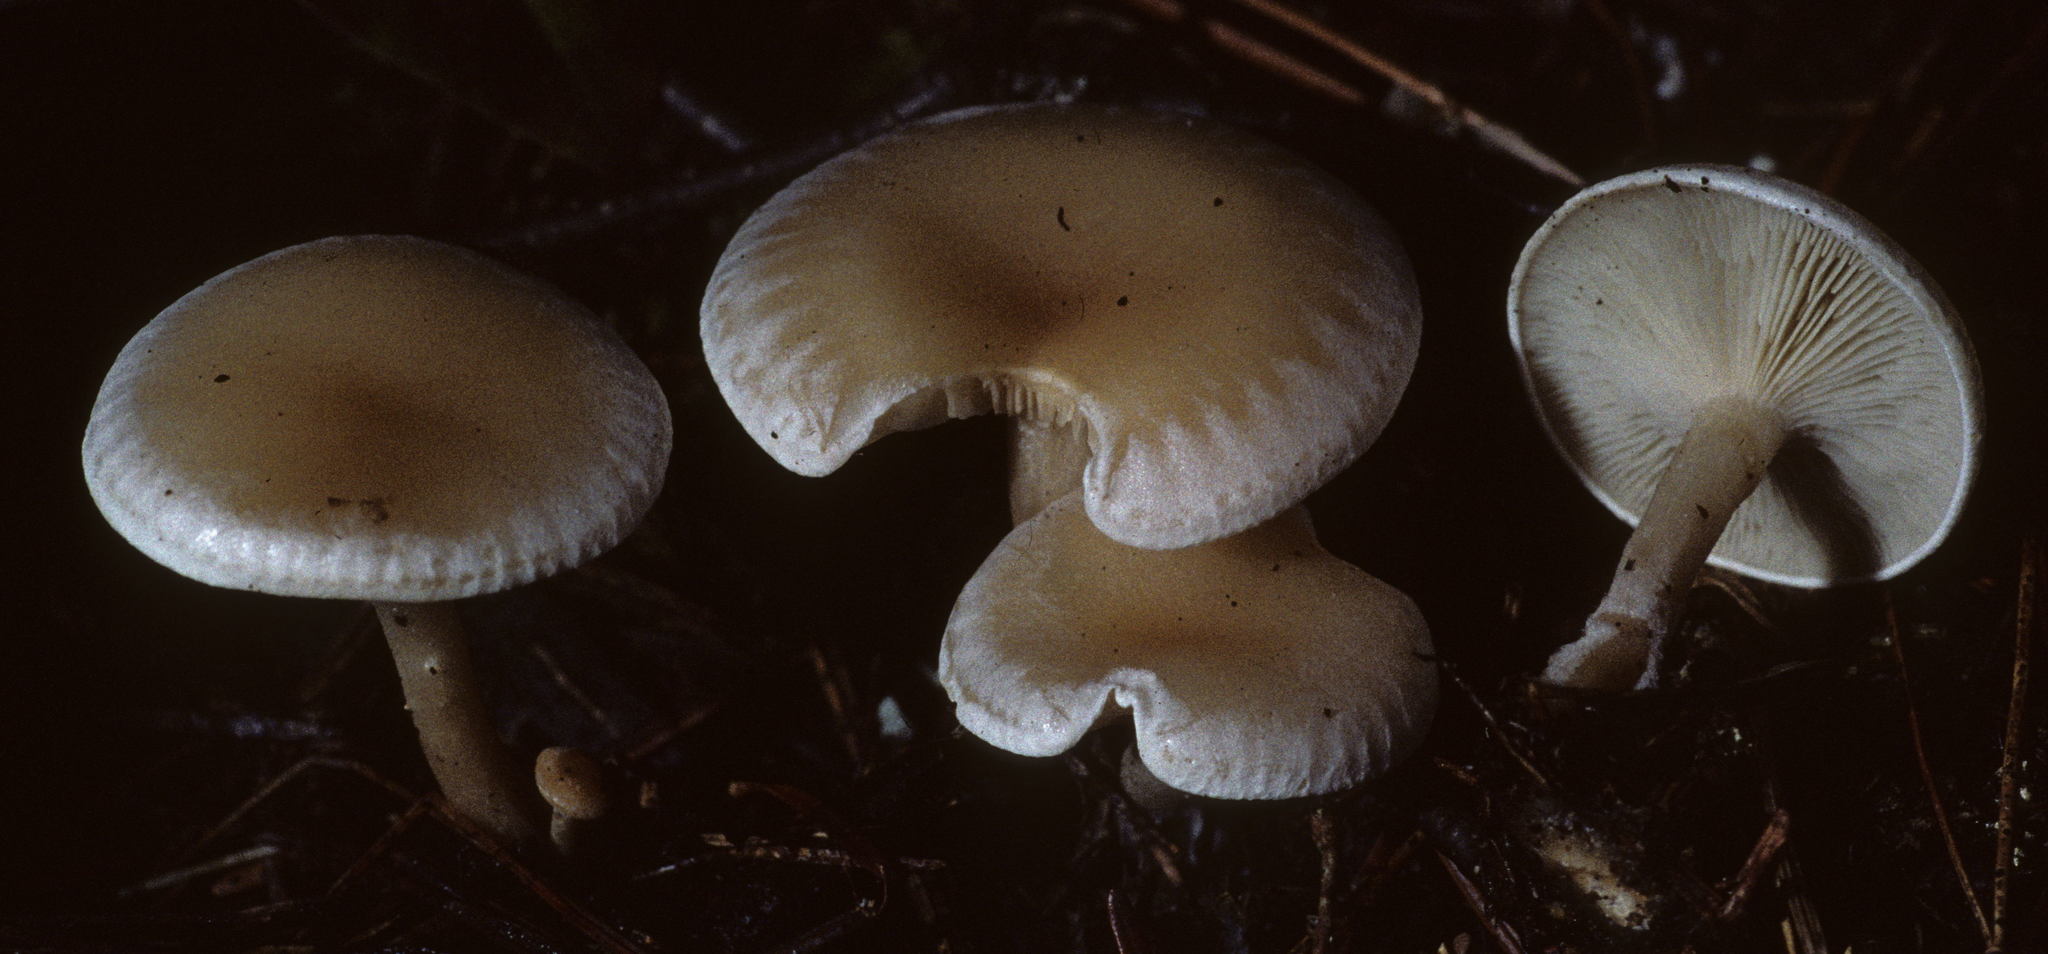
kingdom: Fungi
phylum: Basidiomycota
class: Agaricomycetes
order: Agaricales
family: Tricholomataceae
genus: Leucocybe
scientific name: Leucocybe candicans
